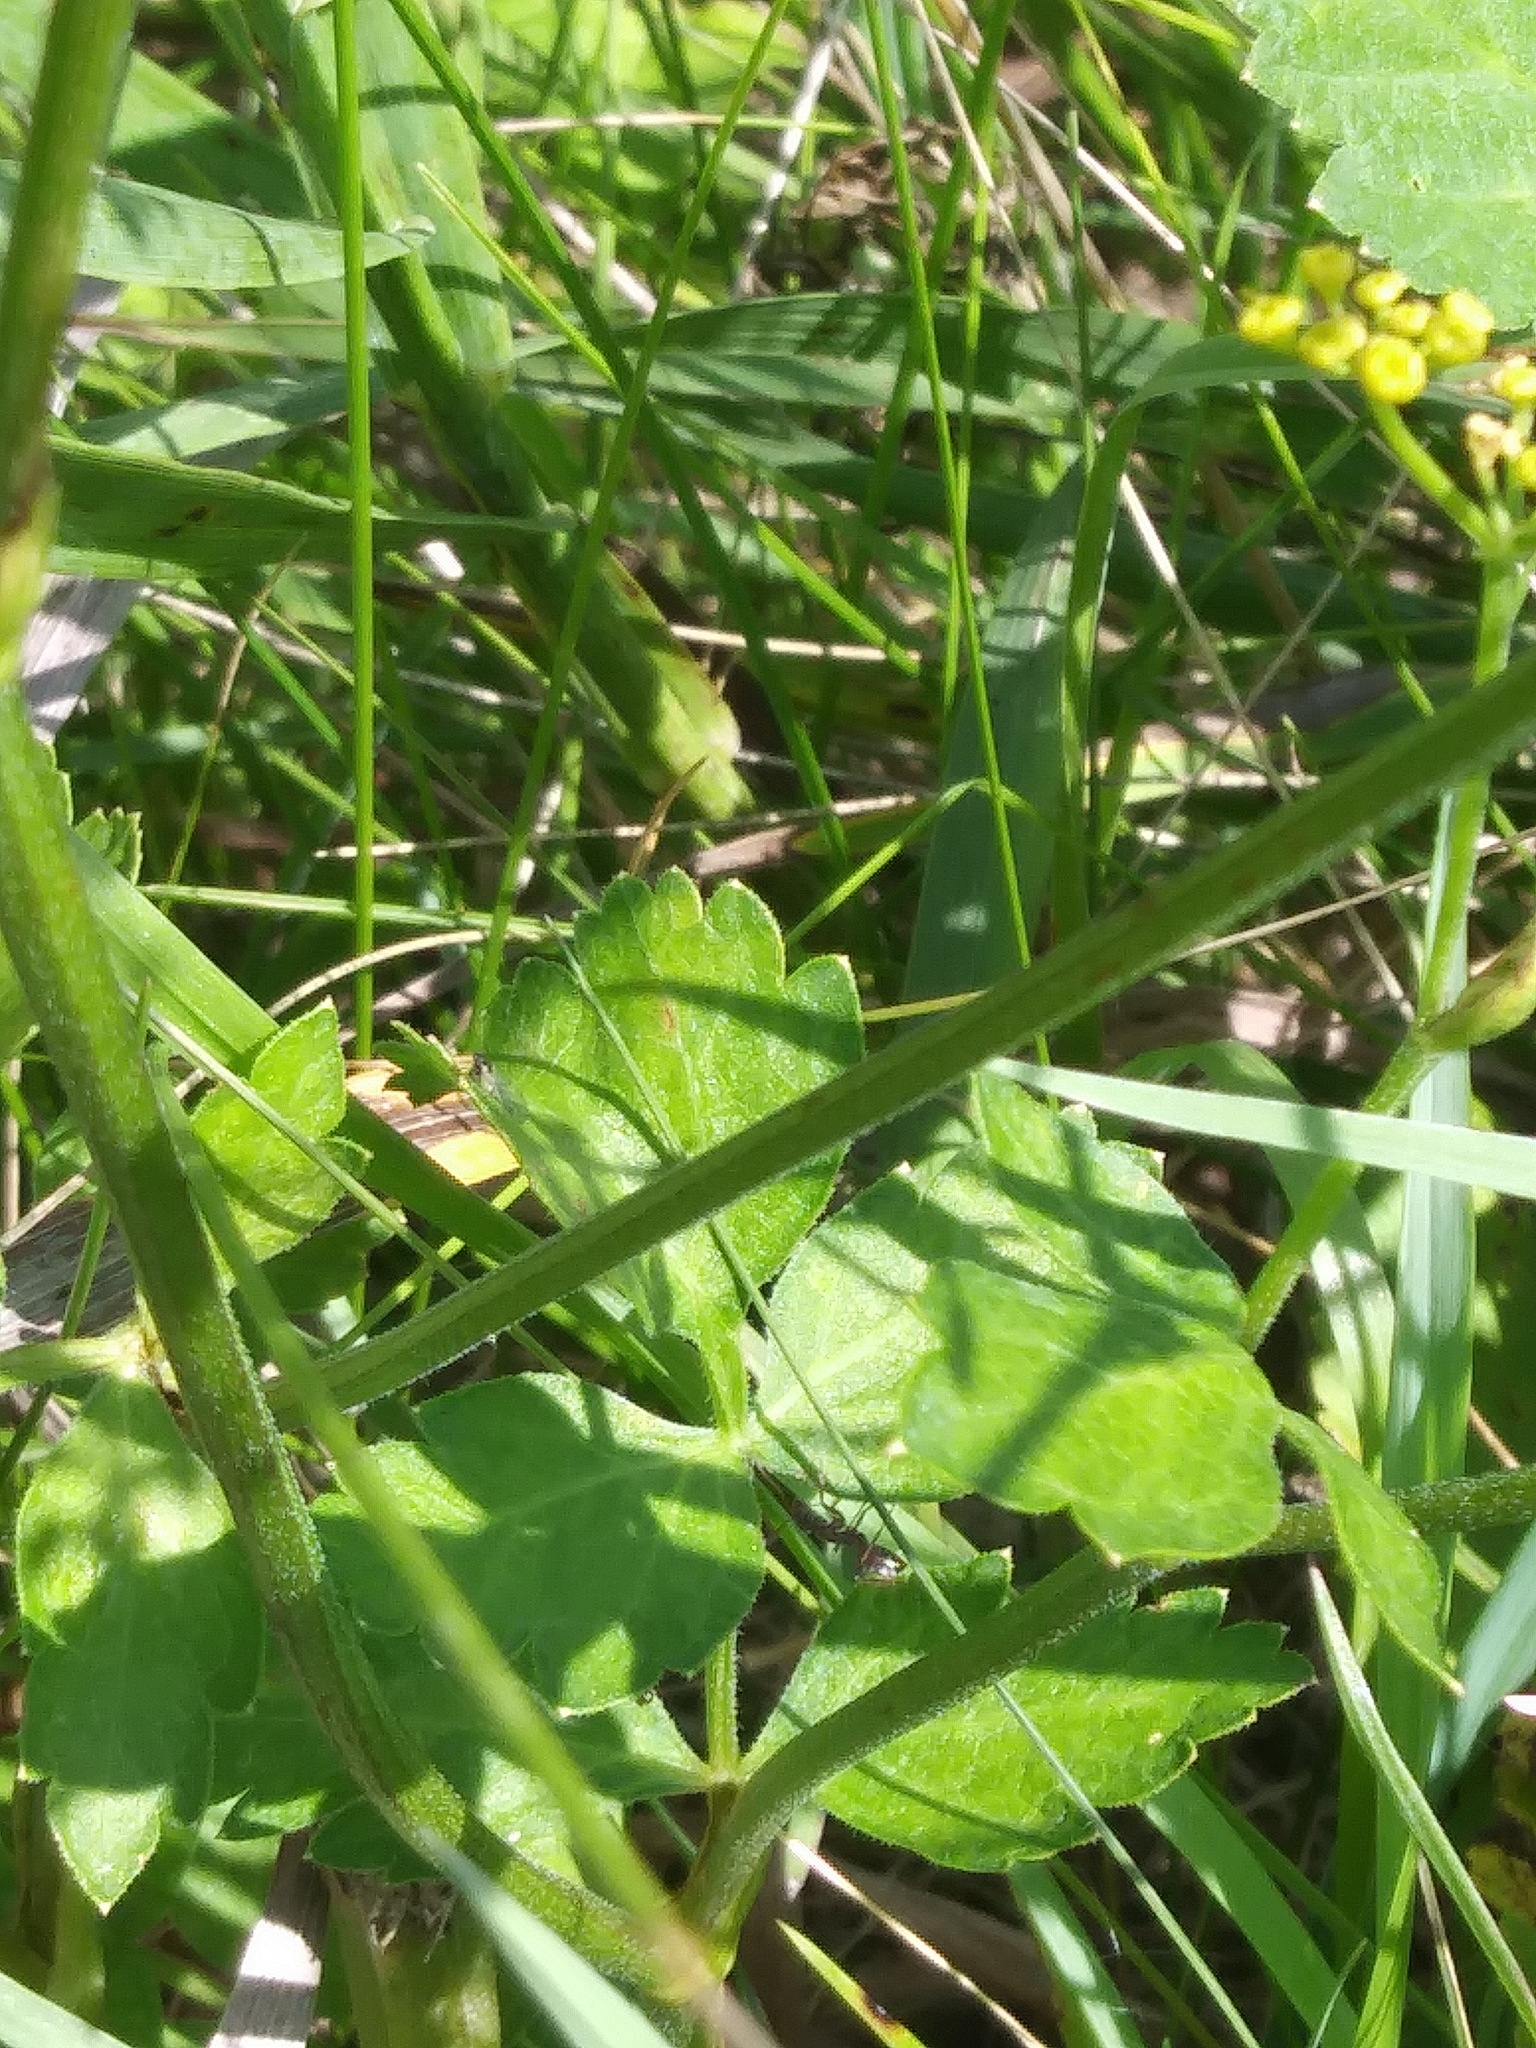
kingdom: Plantae
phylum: Tracheophyta
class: Magnoliopsida
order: Apiales
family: Apiaceae
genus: Pastinaca
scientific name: Pastinaca sativa
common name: Wild parsnip
